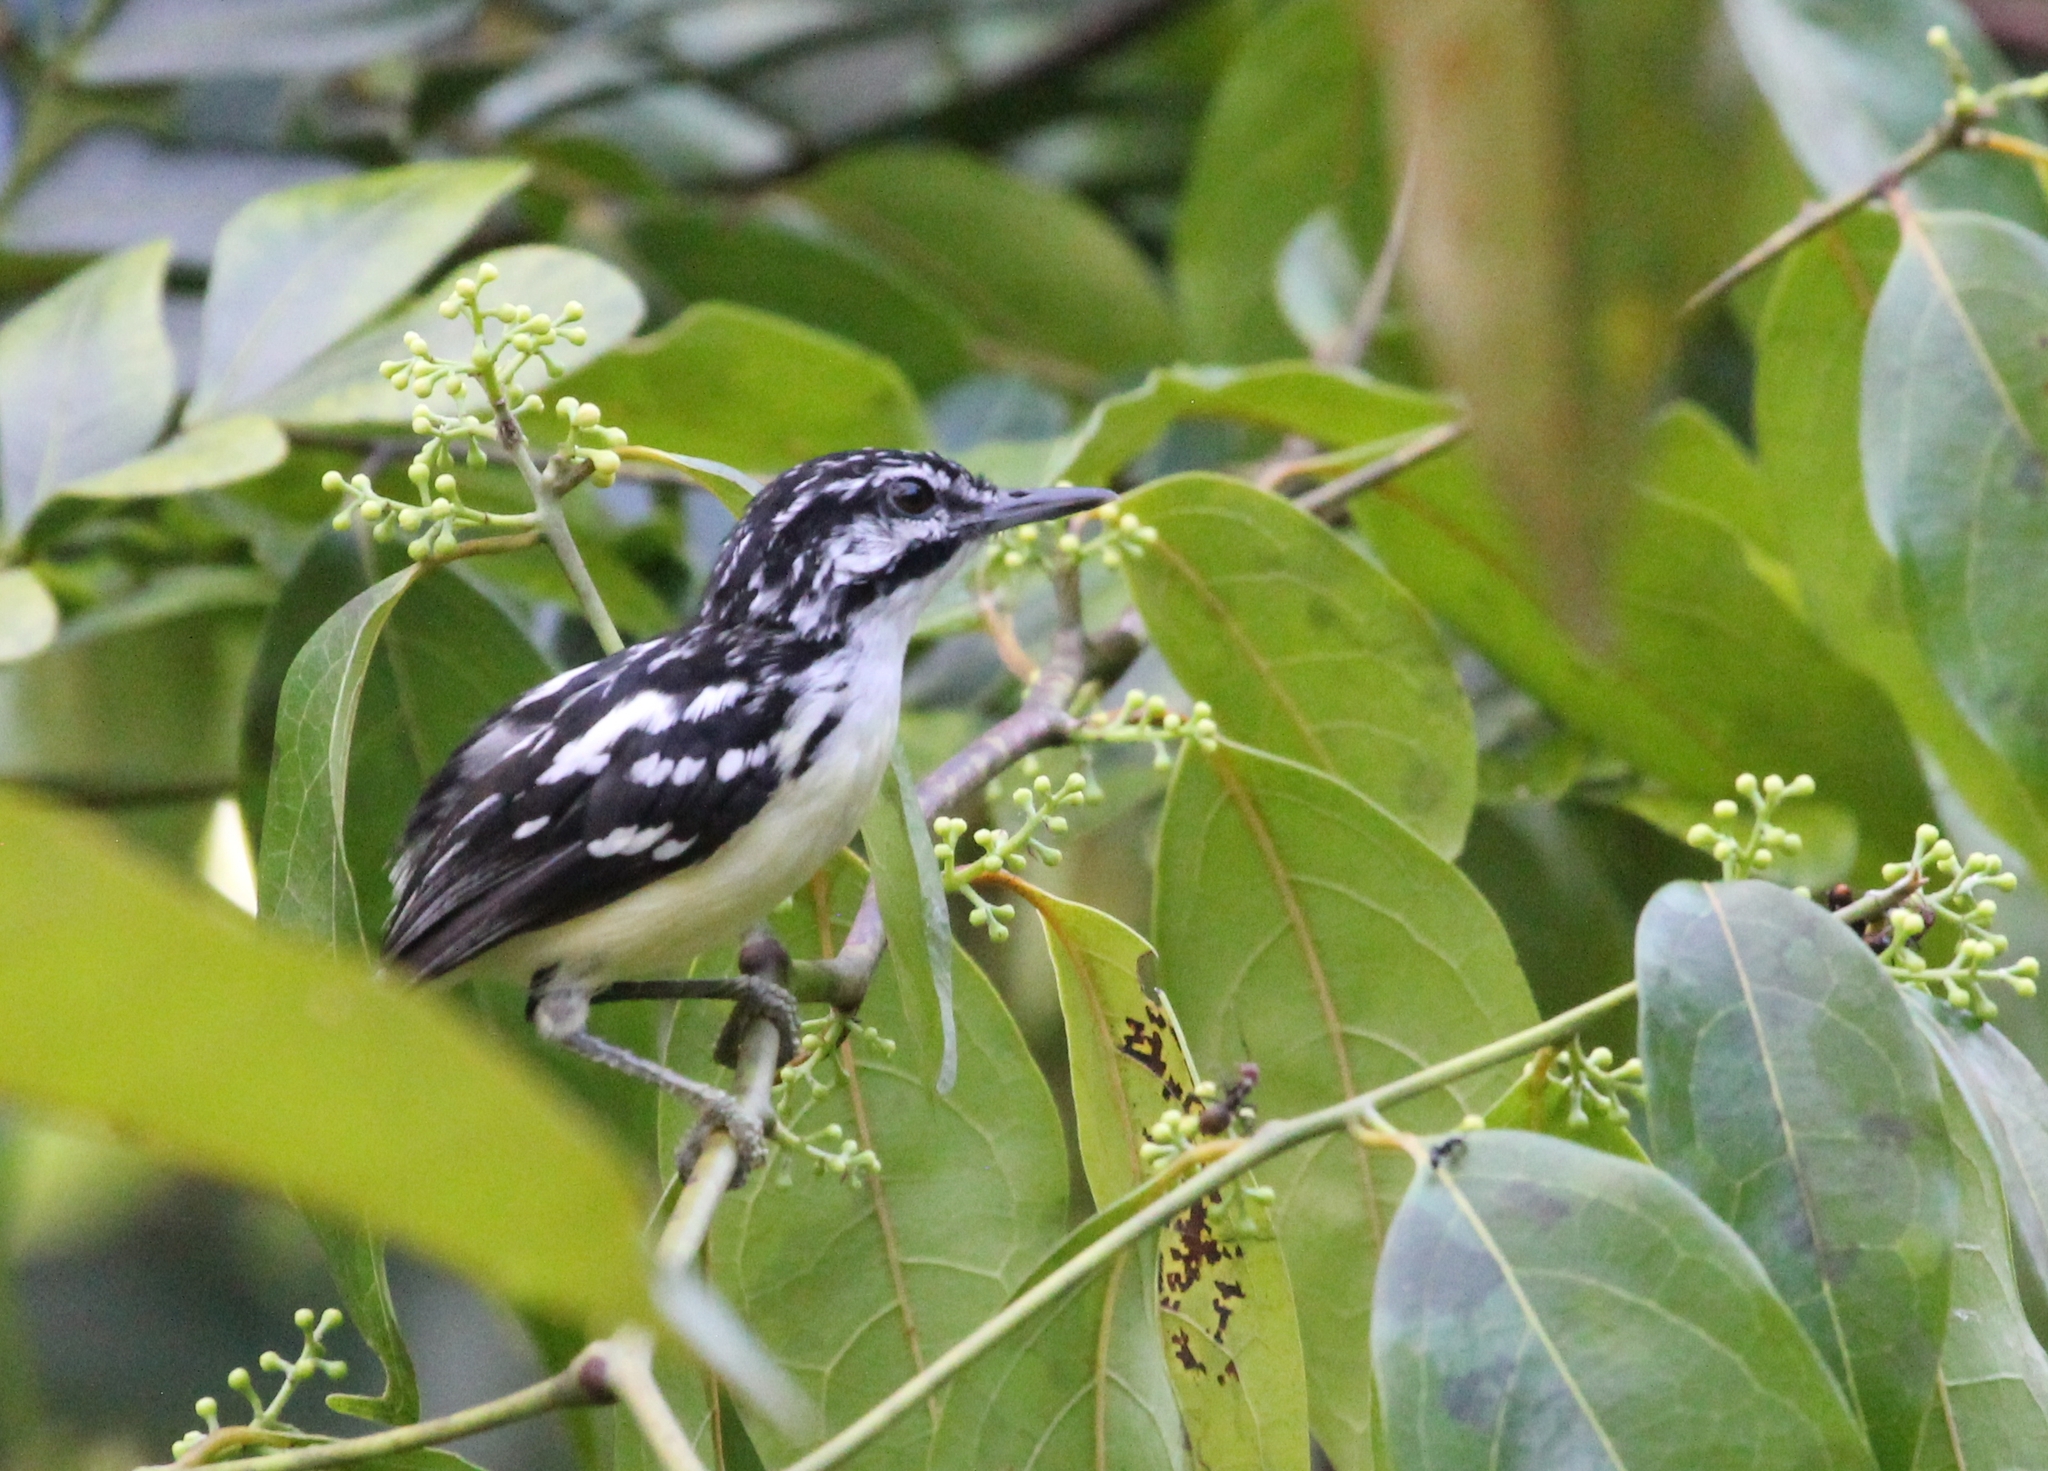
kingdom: Animalia
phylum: Chordata
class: Aves
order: Passeriformes
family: Thamnophilidae
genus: Myrmotherula
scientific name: Myrmotherula ignota
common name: Moustached antwren
